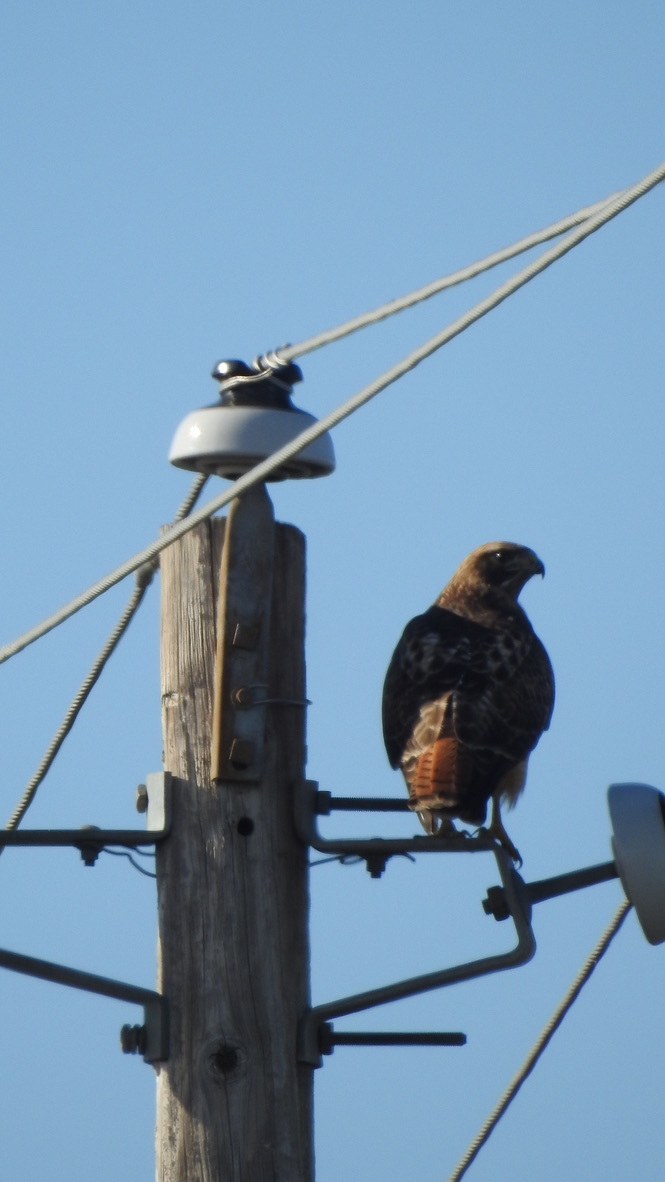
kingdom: Animalia
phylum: Chordata
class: Aves
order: Accipitriformes
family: Accipitridae
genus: Buteo
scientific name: Buteo jamaicensis
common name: Red-tailed hawk
